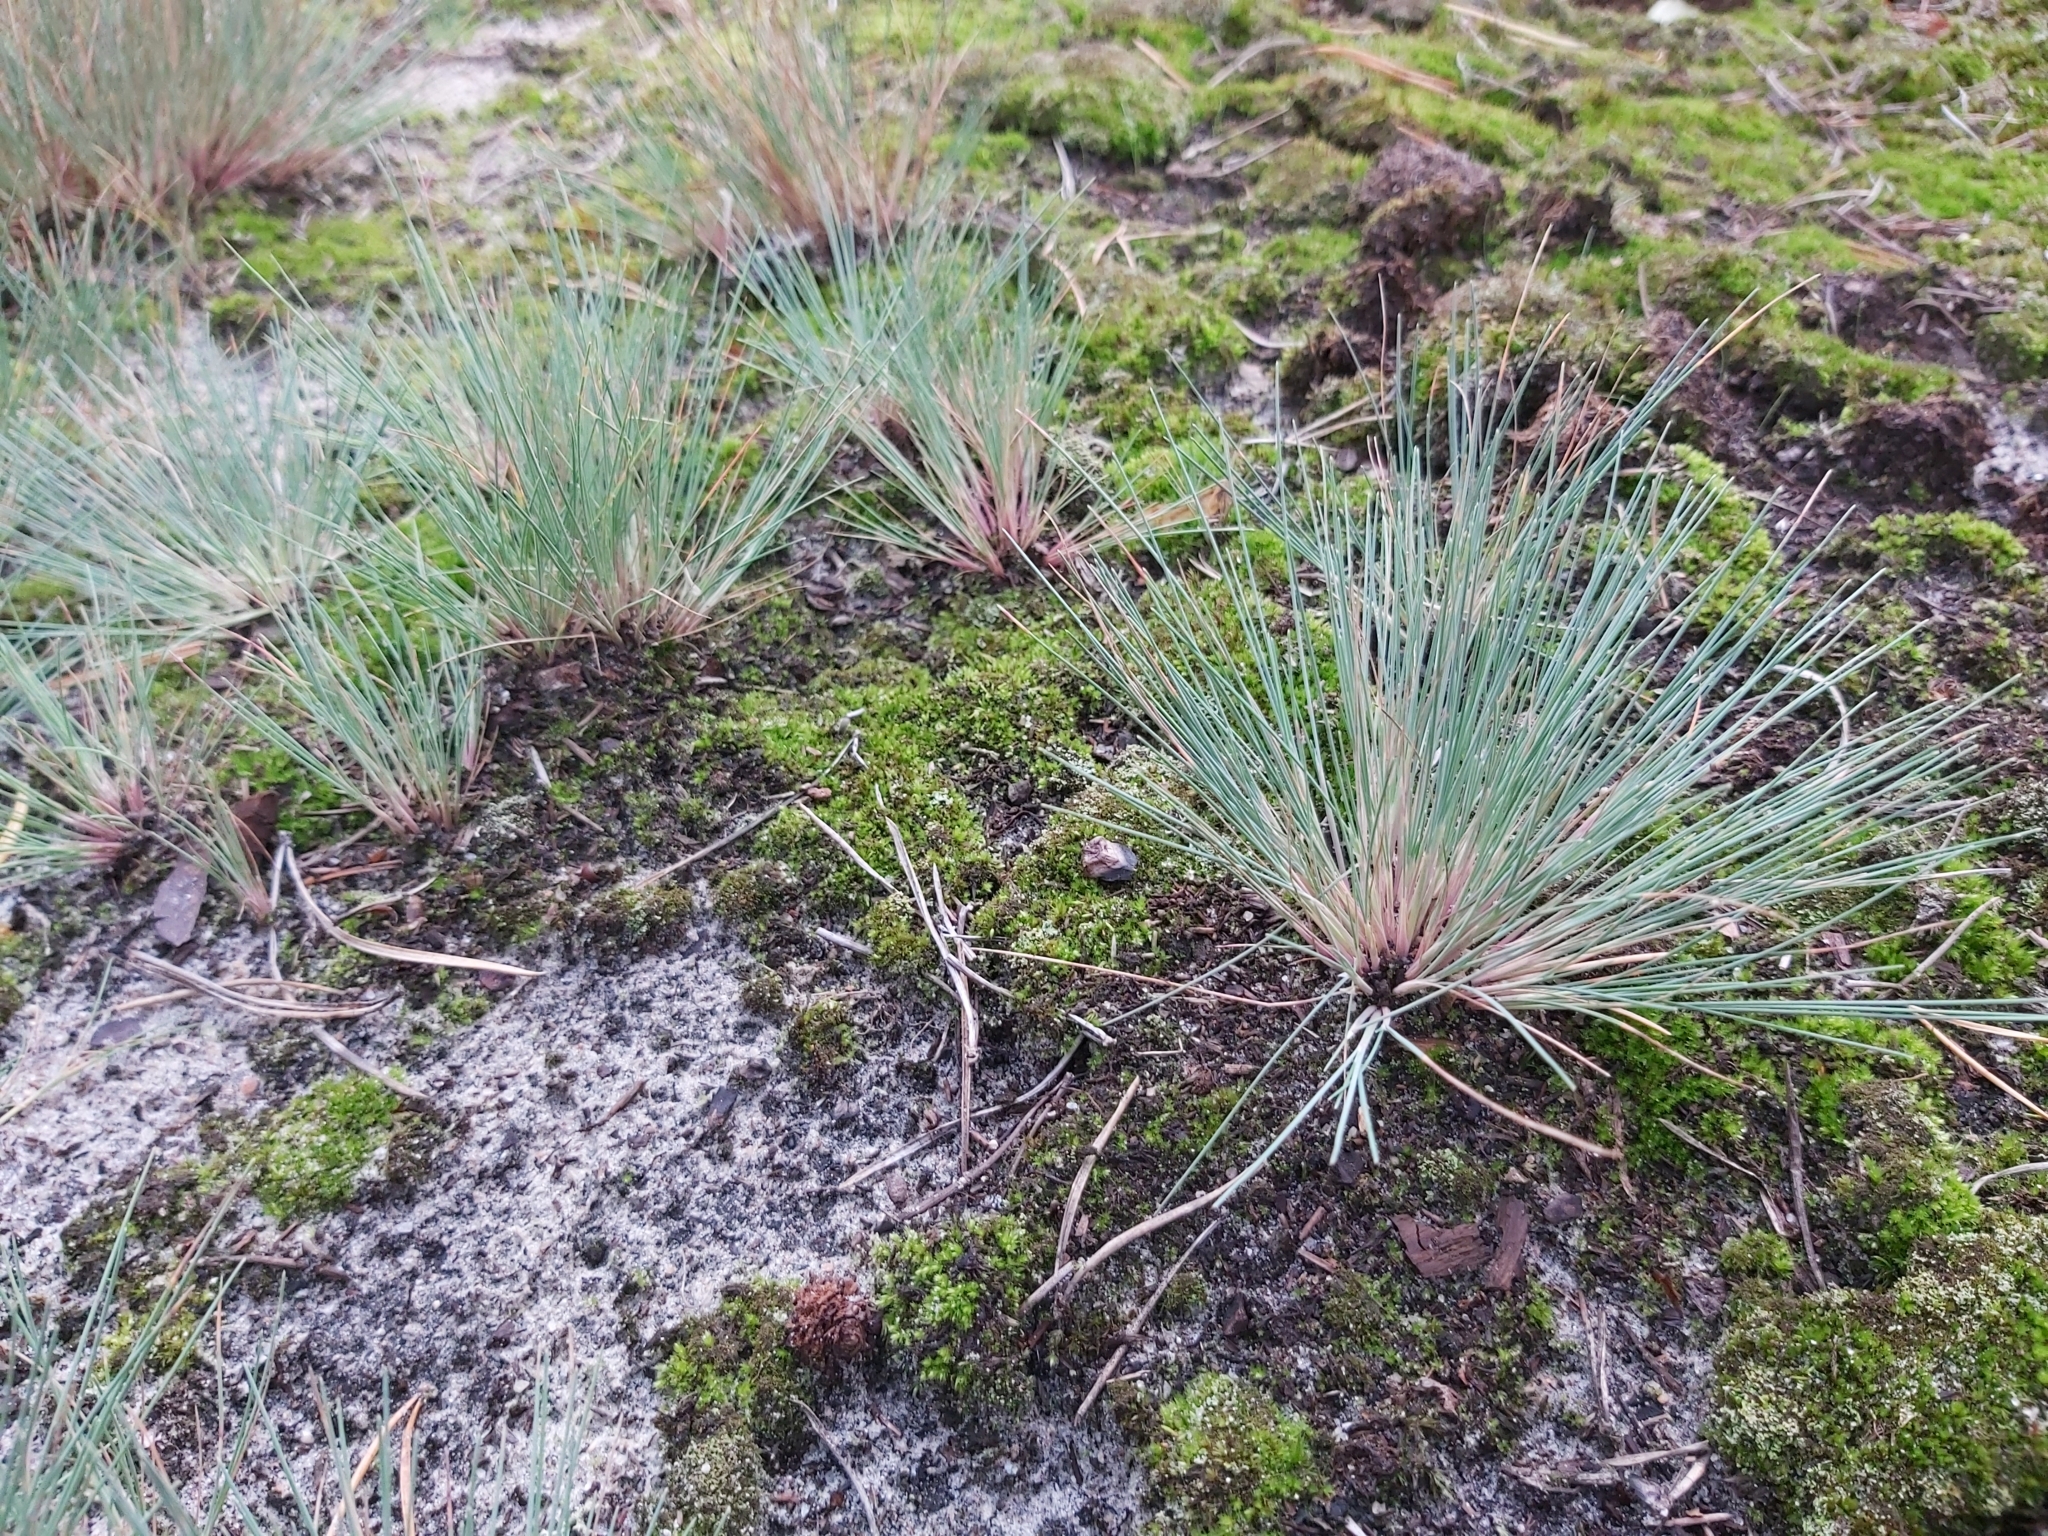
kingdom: Plantae
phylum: Tracheophyta
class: Liliopsida
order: Poales
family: Poaceae
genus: Corynephorus
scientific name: Corynephorus canescens
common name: Grey hair-grass
